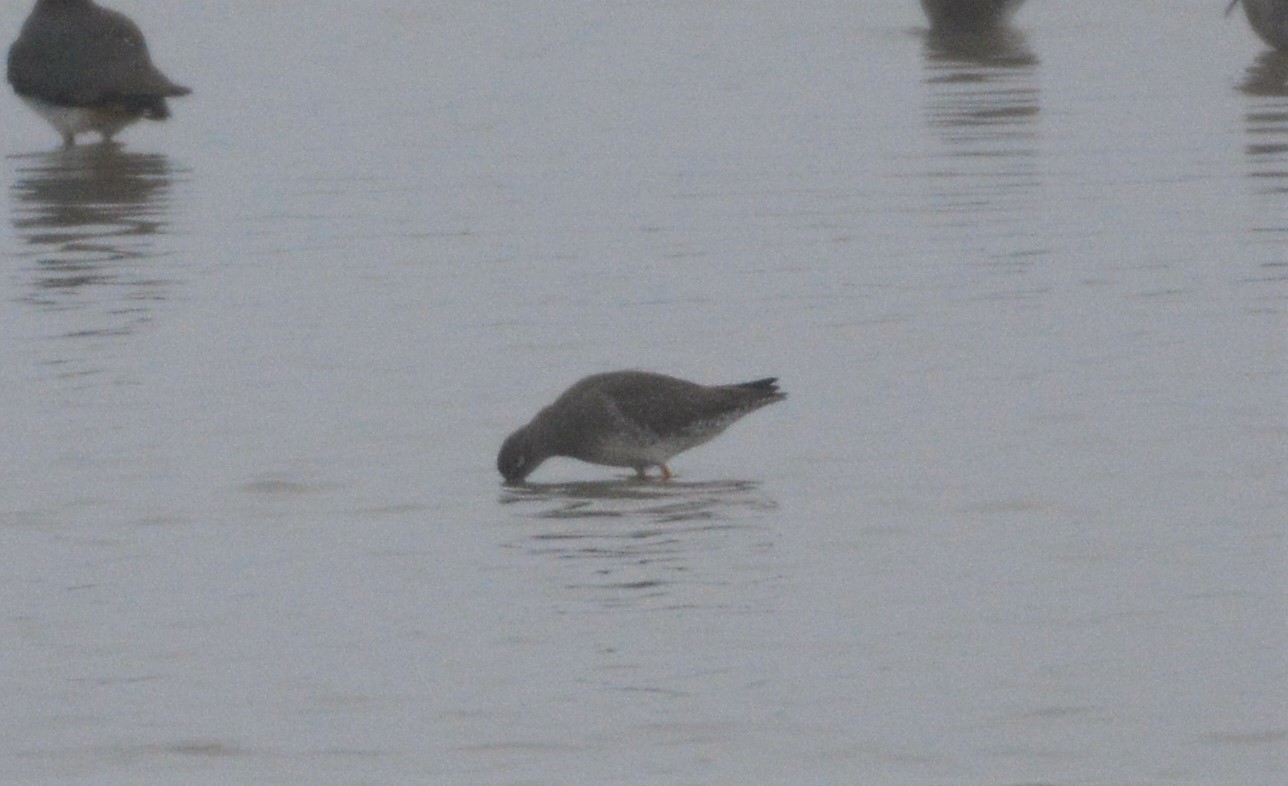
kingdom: Animalia
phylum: Chordata
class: Aves
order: Charadriiformes
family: Scolopacidae
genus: Tringa
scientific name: Tringa totanus
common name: Common redshank
